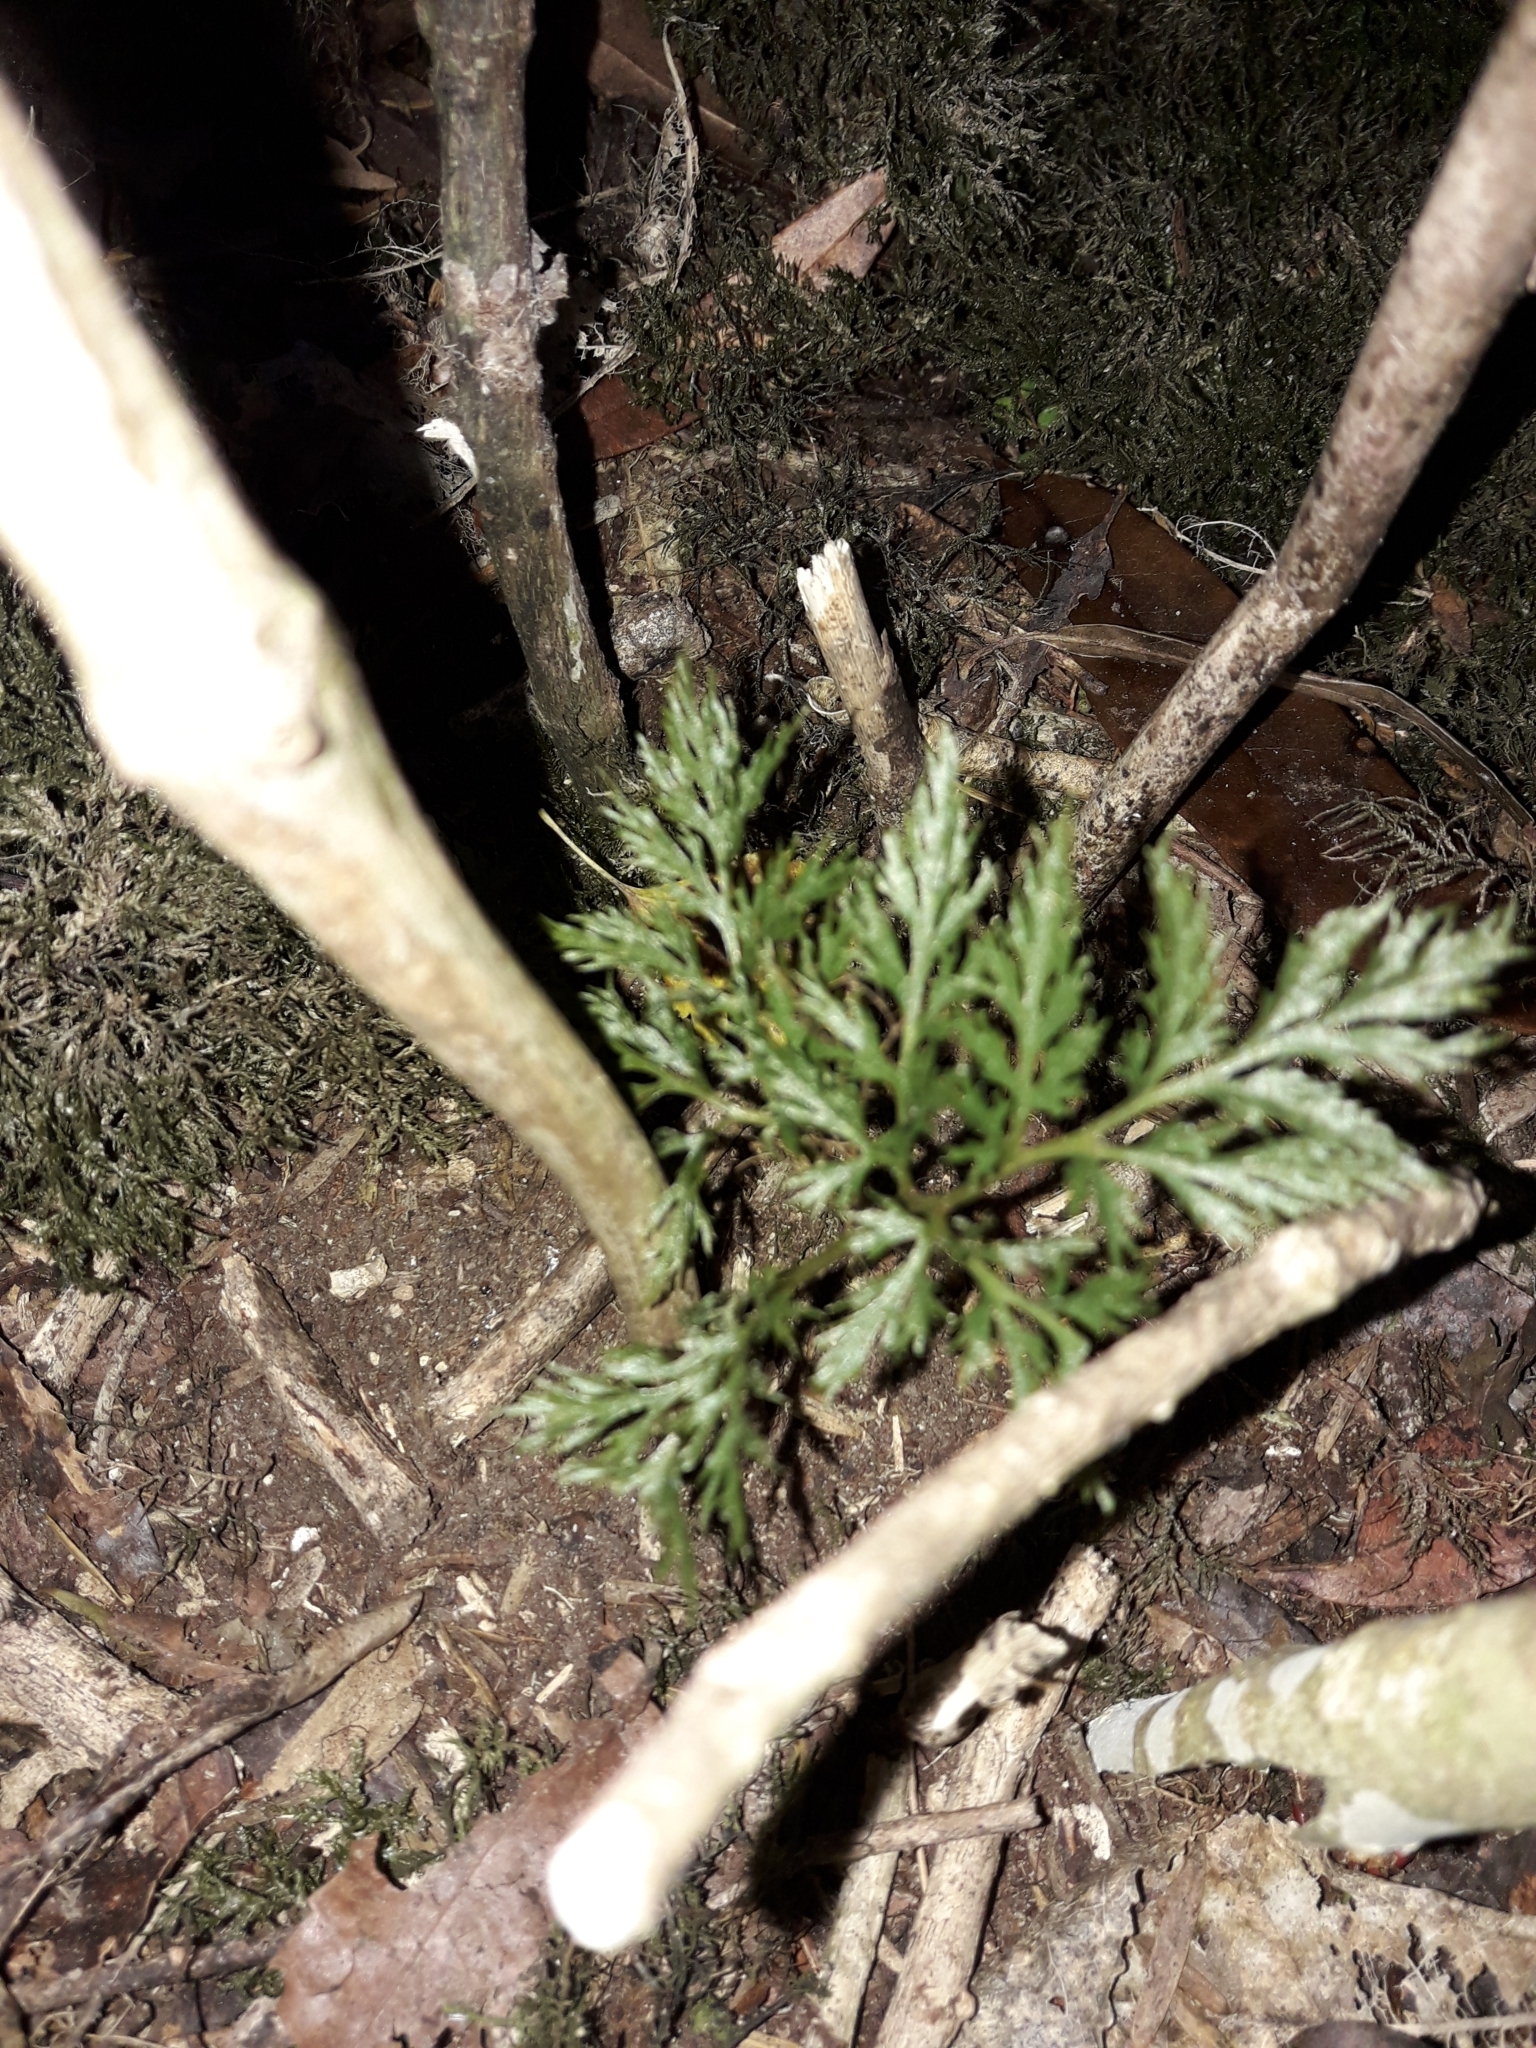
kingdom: Plantae
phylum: Tracheophyta
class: Polypodiopsida
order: Ophioglossales
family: Ophioglossaceae
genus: Sceptridium
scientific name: Sceptridium biforme
